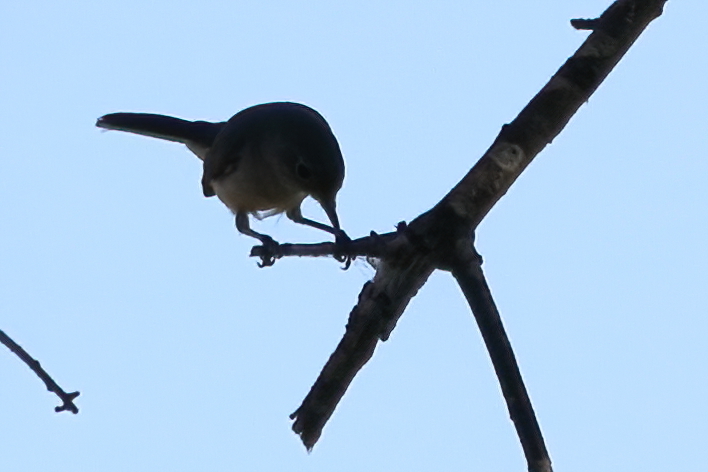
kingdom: Animalia
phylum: Chordata
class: Aves
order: Passeriformes
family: Polioptilidae
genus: Polioptila
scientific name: Polioptila caerulea
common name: Blue-gray gnatcatcher
